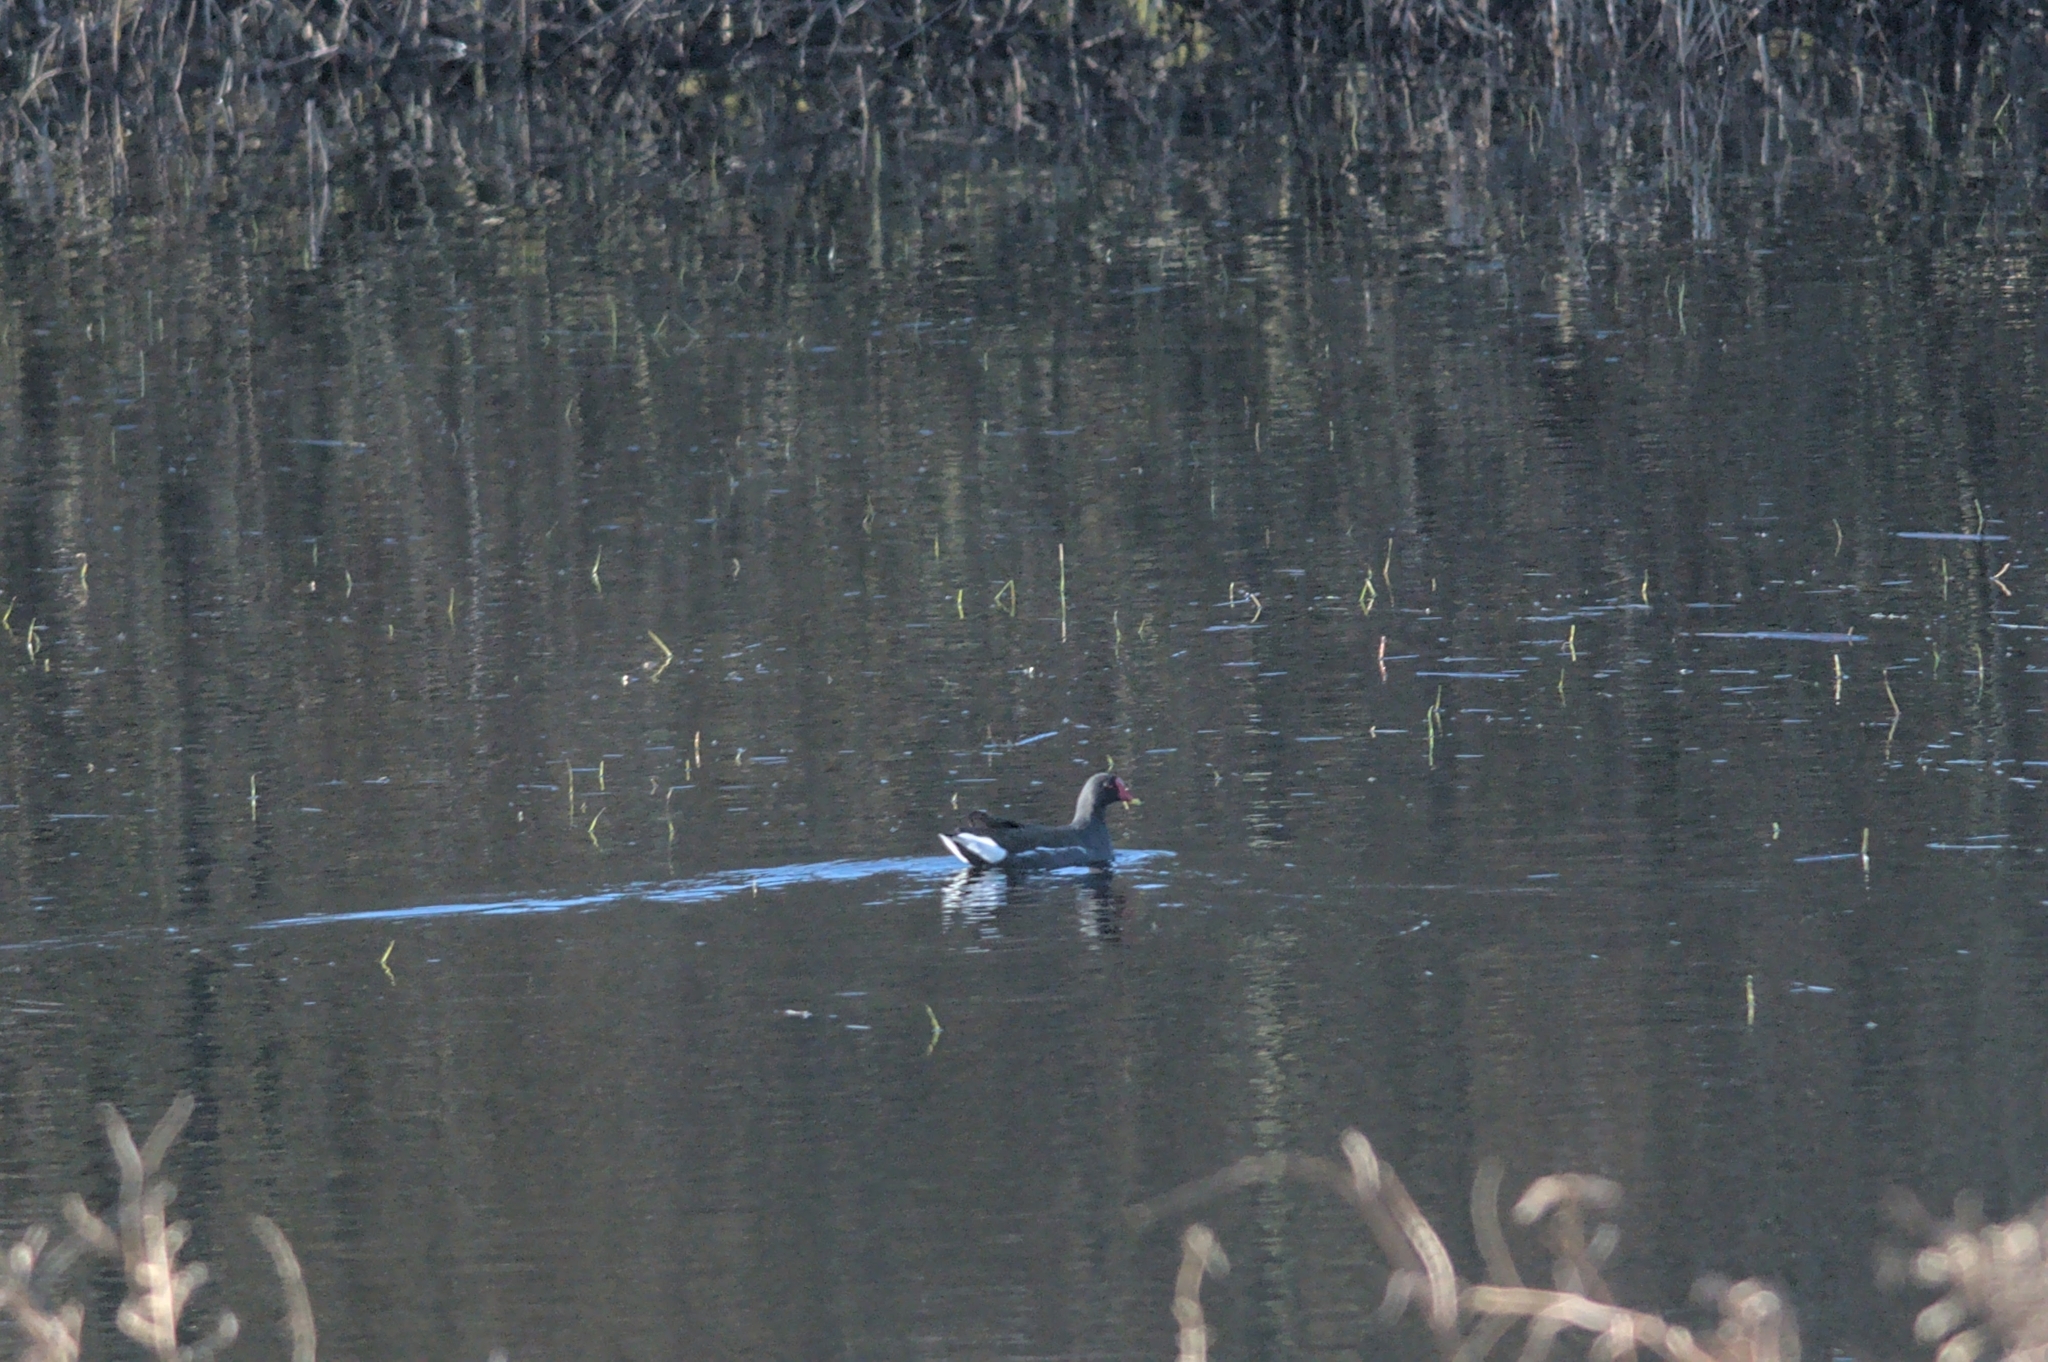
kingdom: Animalia
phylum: Chordata
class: Aves
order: Gruiformes
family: Rallidae
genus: Gallinula
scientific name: Gallinula chloropus
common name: Common moorhen
